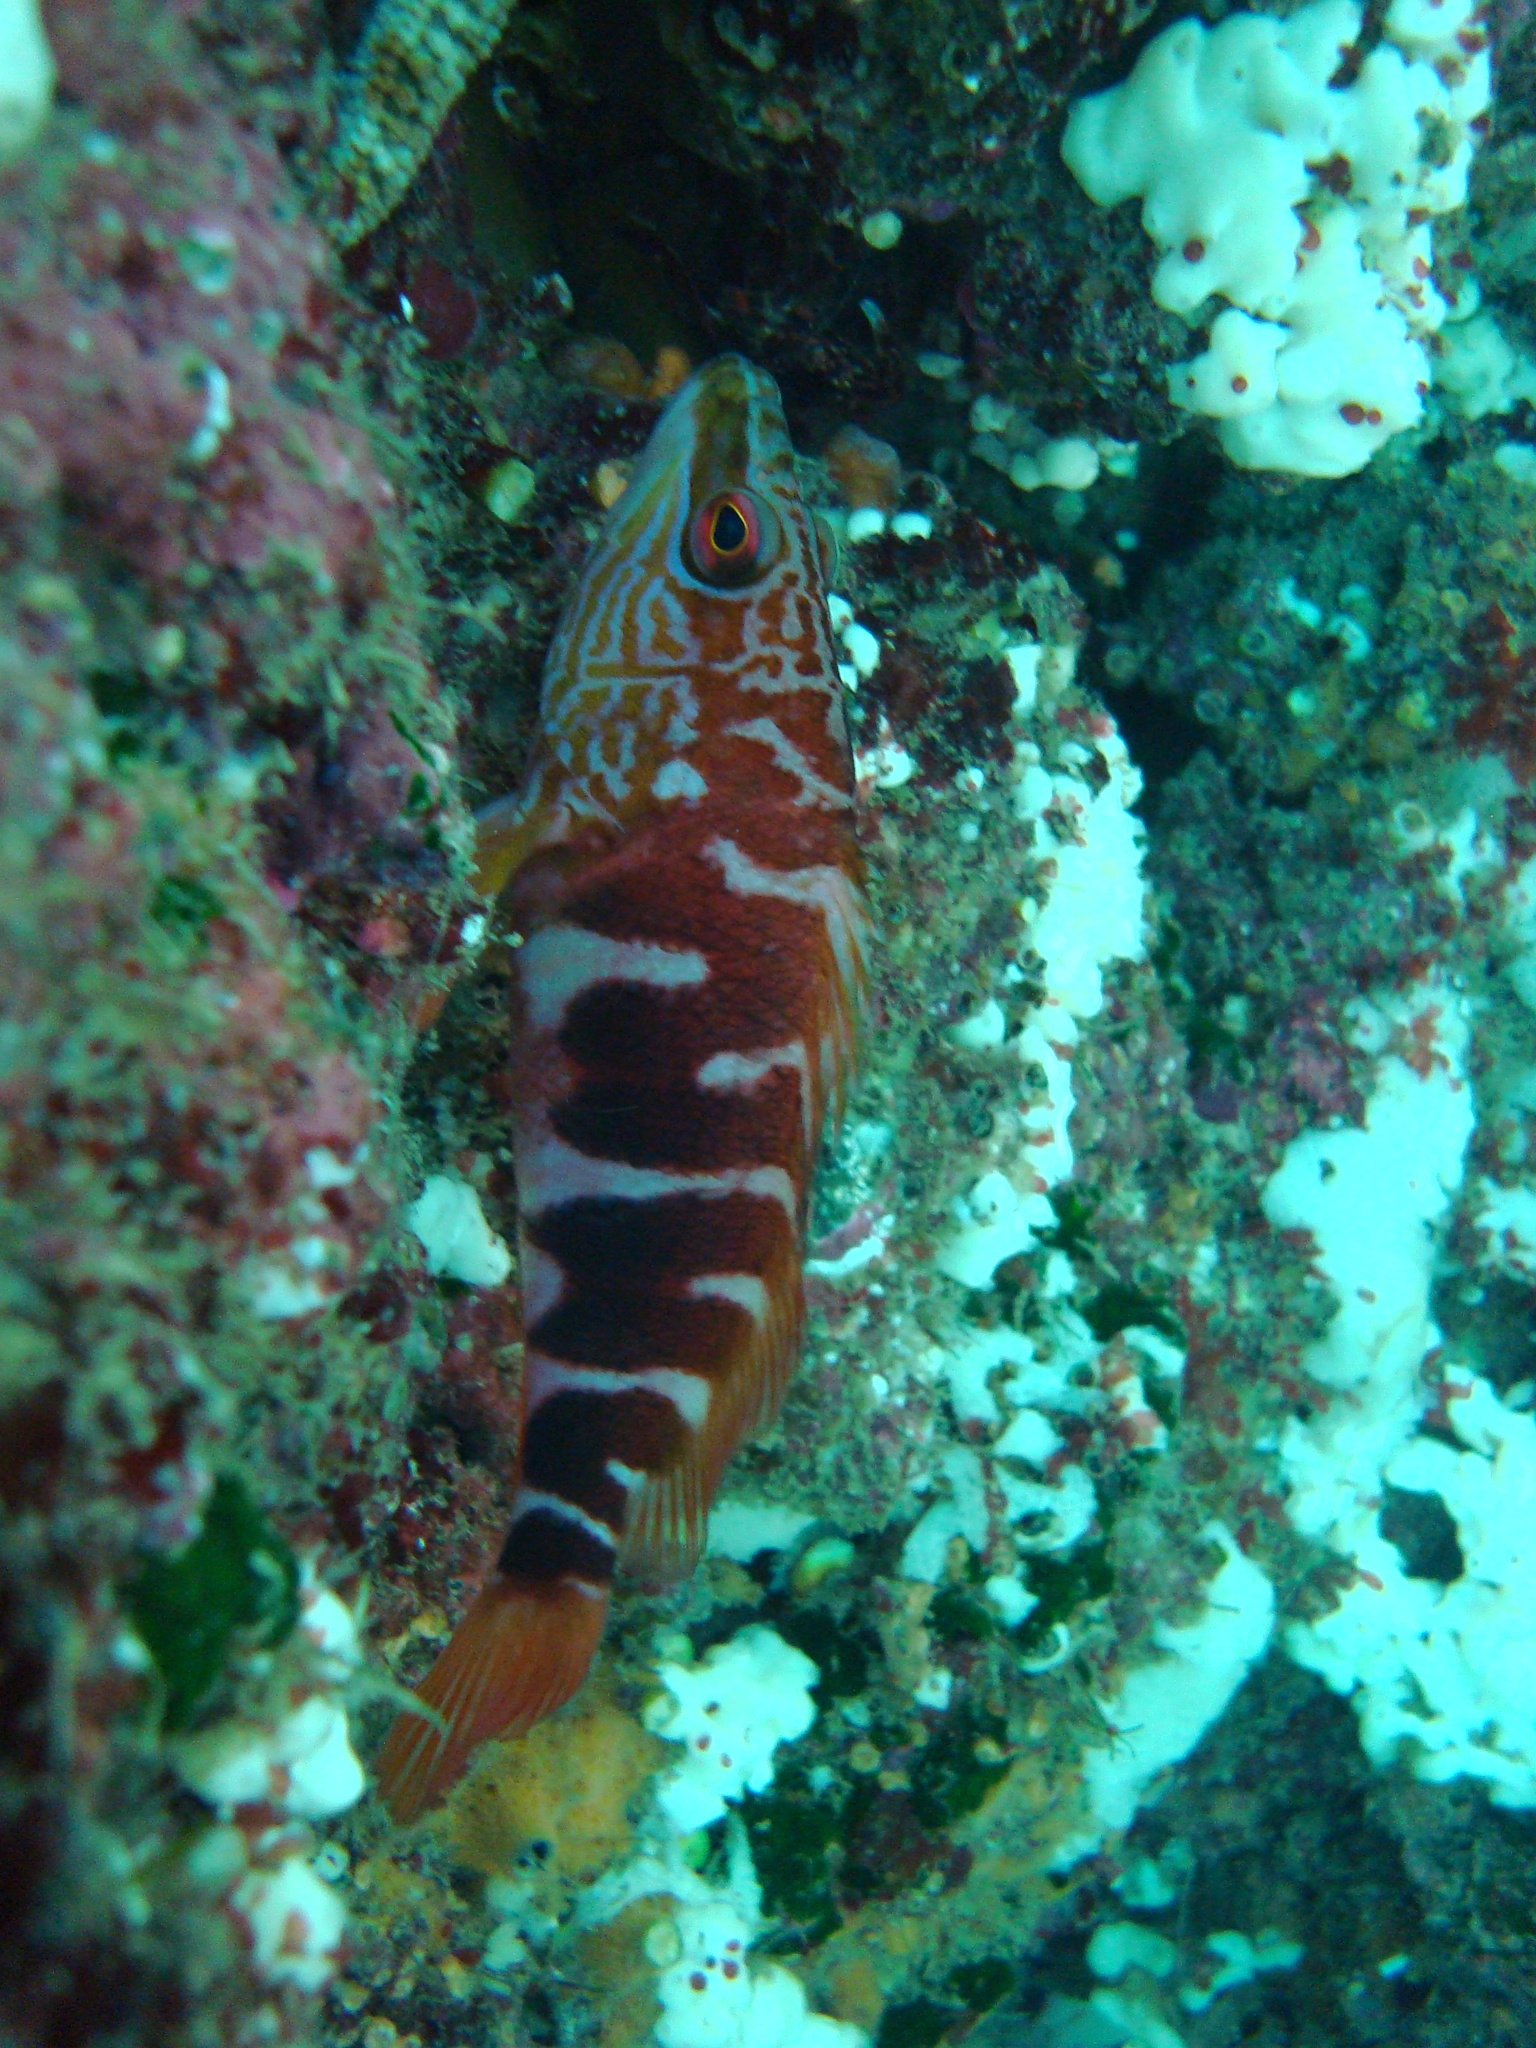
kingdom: Animalia
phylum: Chordata
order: Perciformes
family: Serranidae
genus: Hypoplectrodes
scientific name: Hypoplectrodes semicinctum
